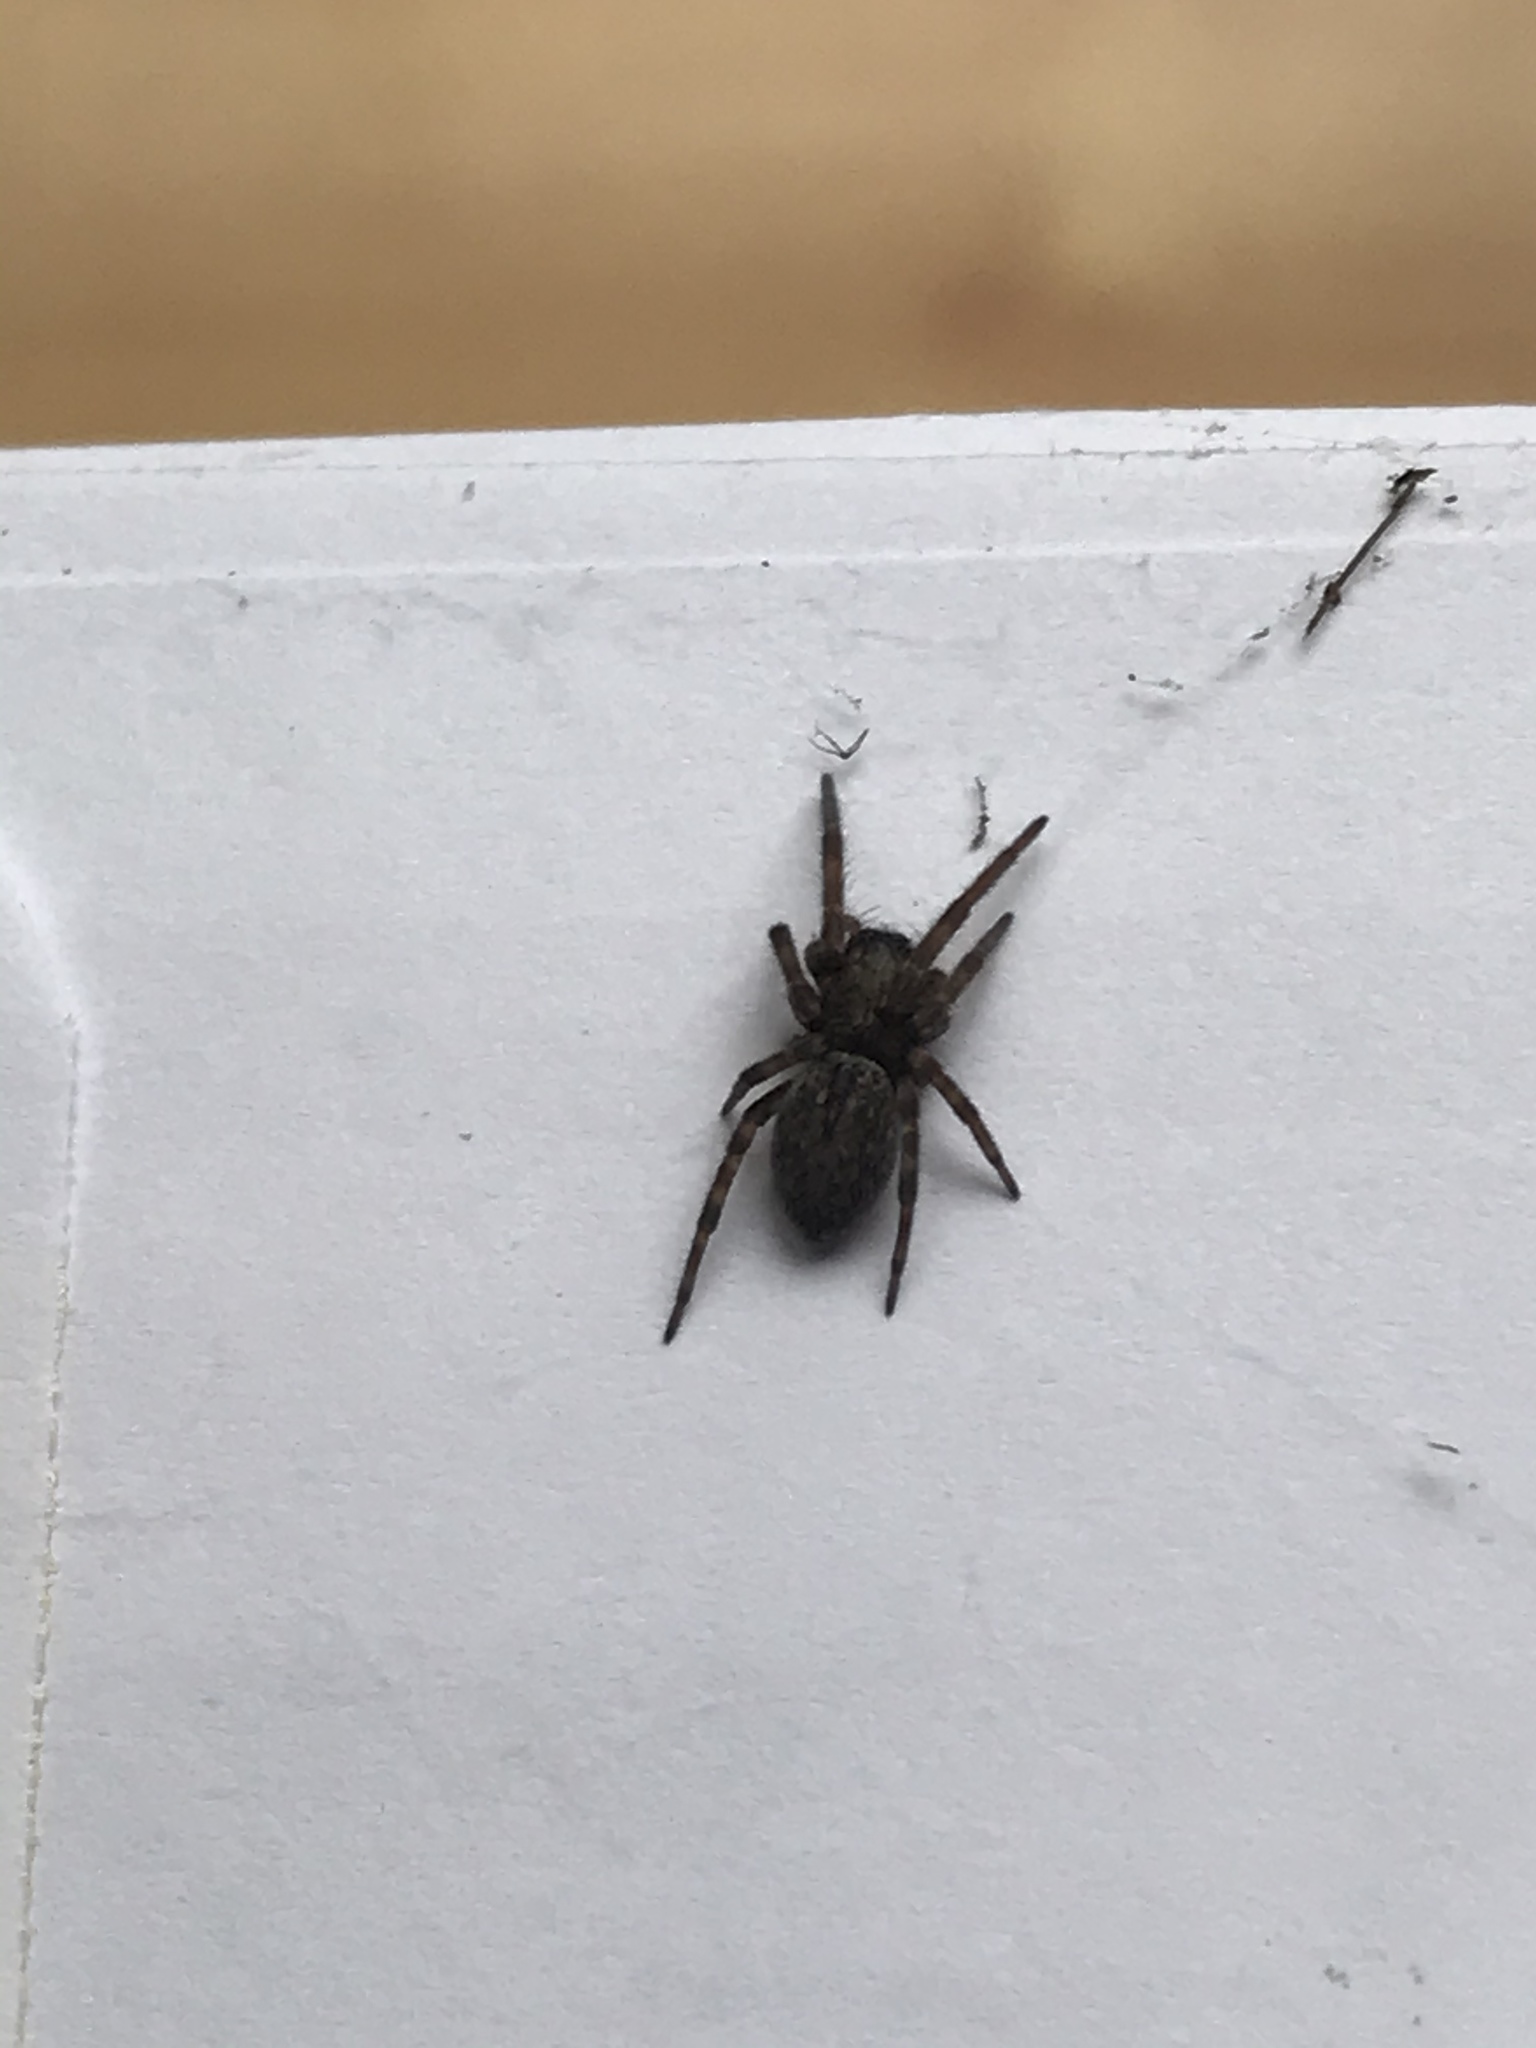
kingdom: Animalia
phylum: Arthropoda
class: Arachnida
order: Araneae
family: Desidae
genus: Badumna
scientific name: Badumna longinqua
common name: Gray house spider
